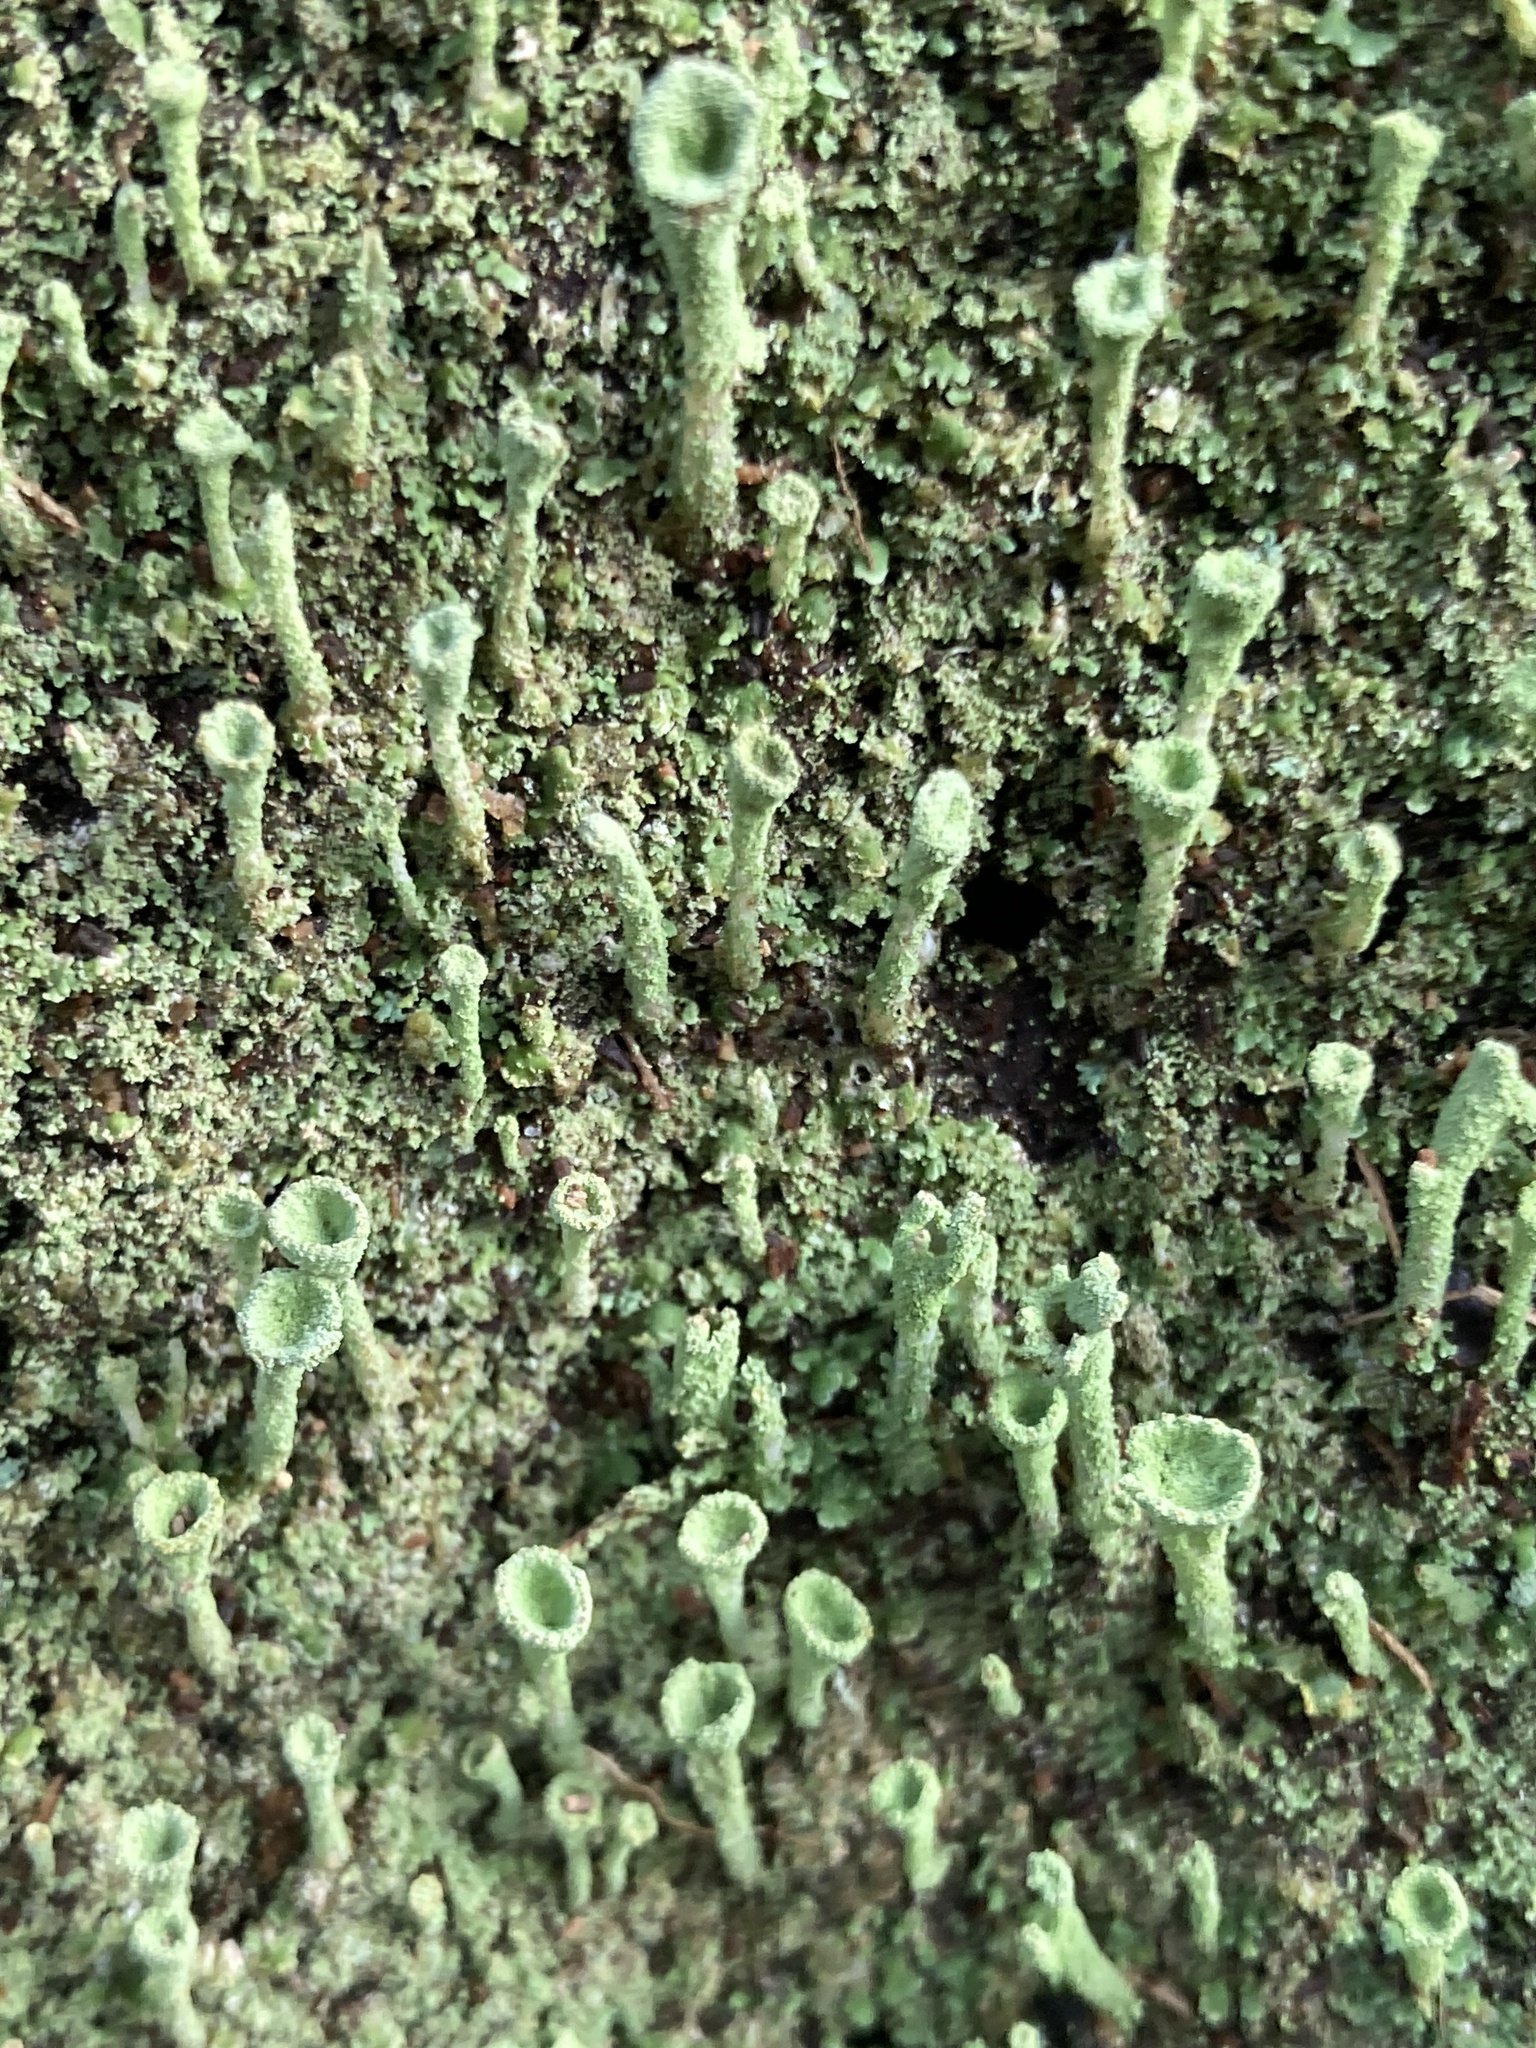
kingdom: Fungi
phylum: Ascomycota
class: Lecanoromycetes
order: Lecanorales
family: Cladoniaceae
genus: Cladonia
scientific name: Cladonia fimbriata
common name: Powdered trumpet lichen
